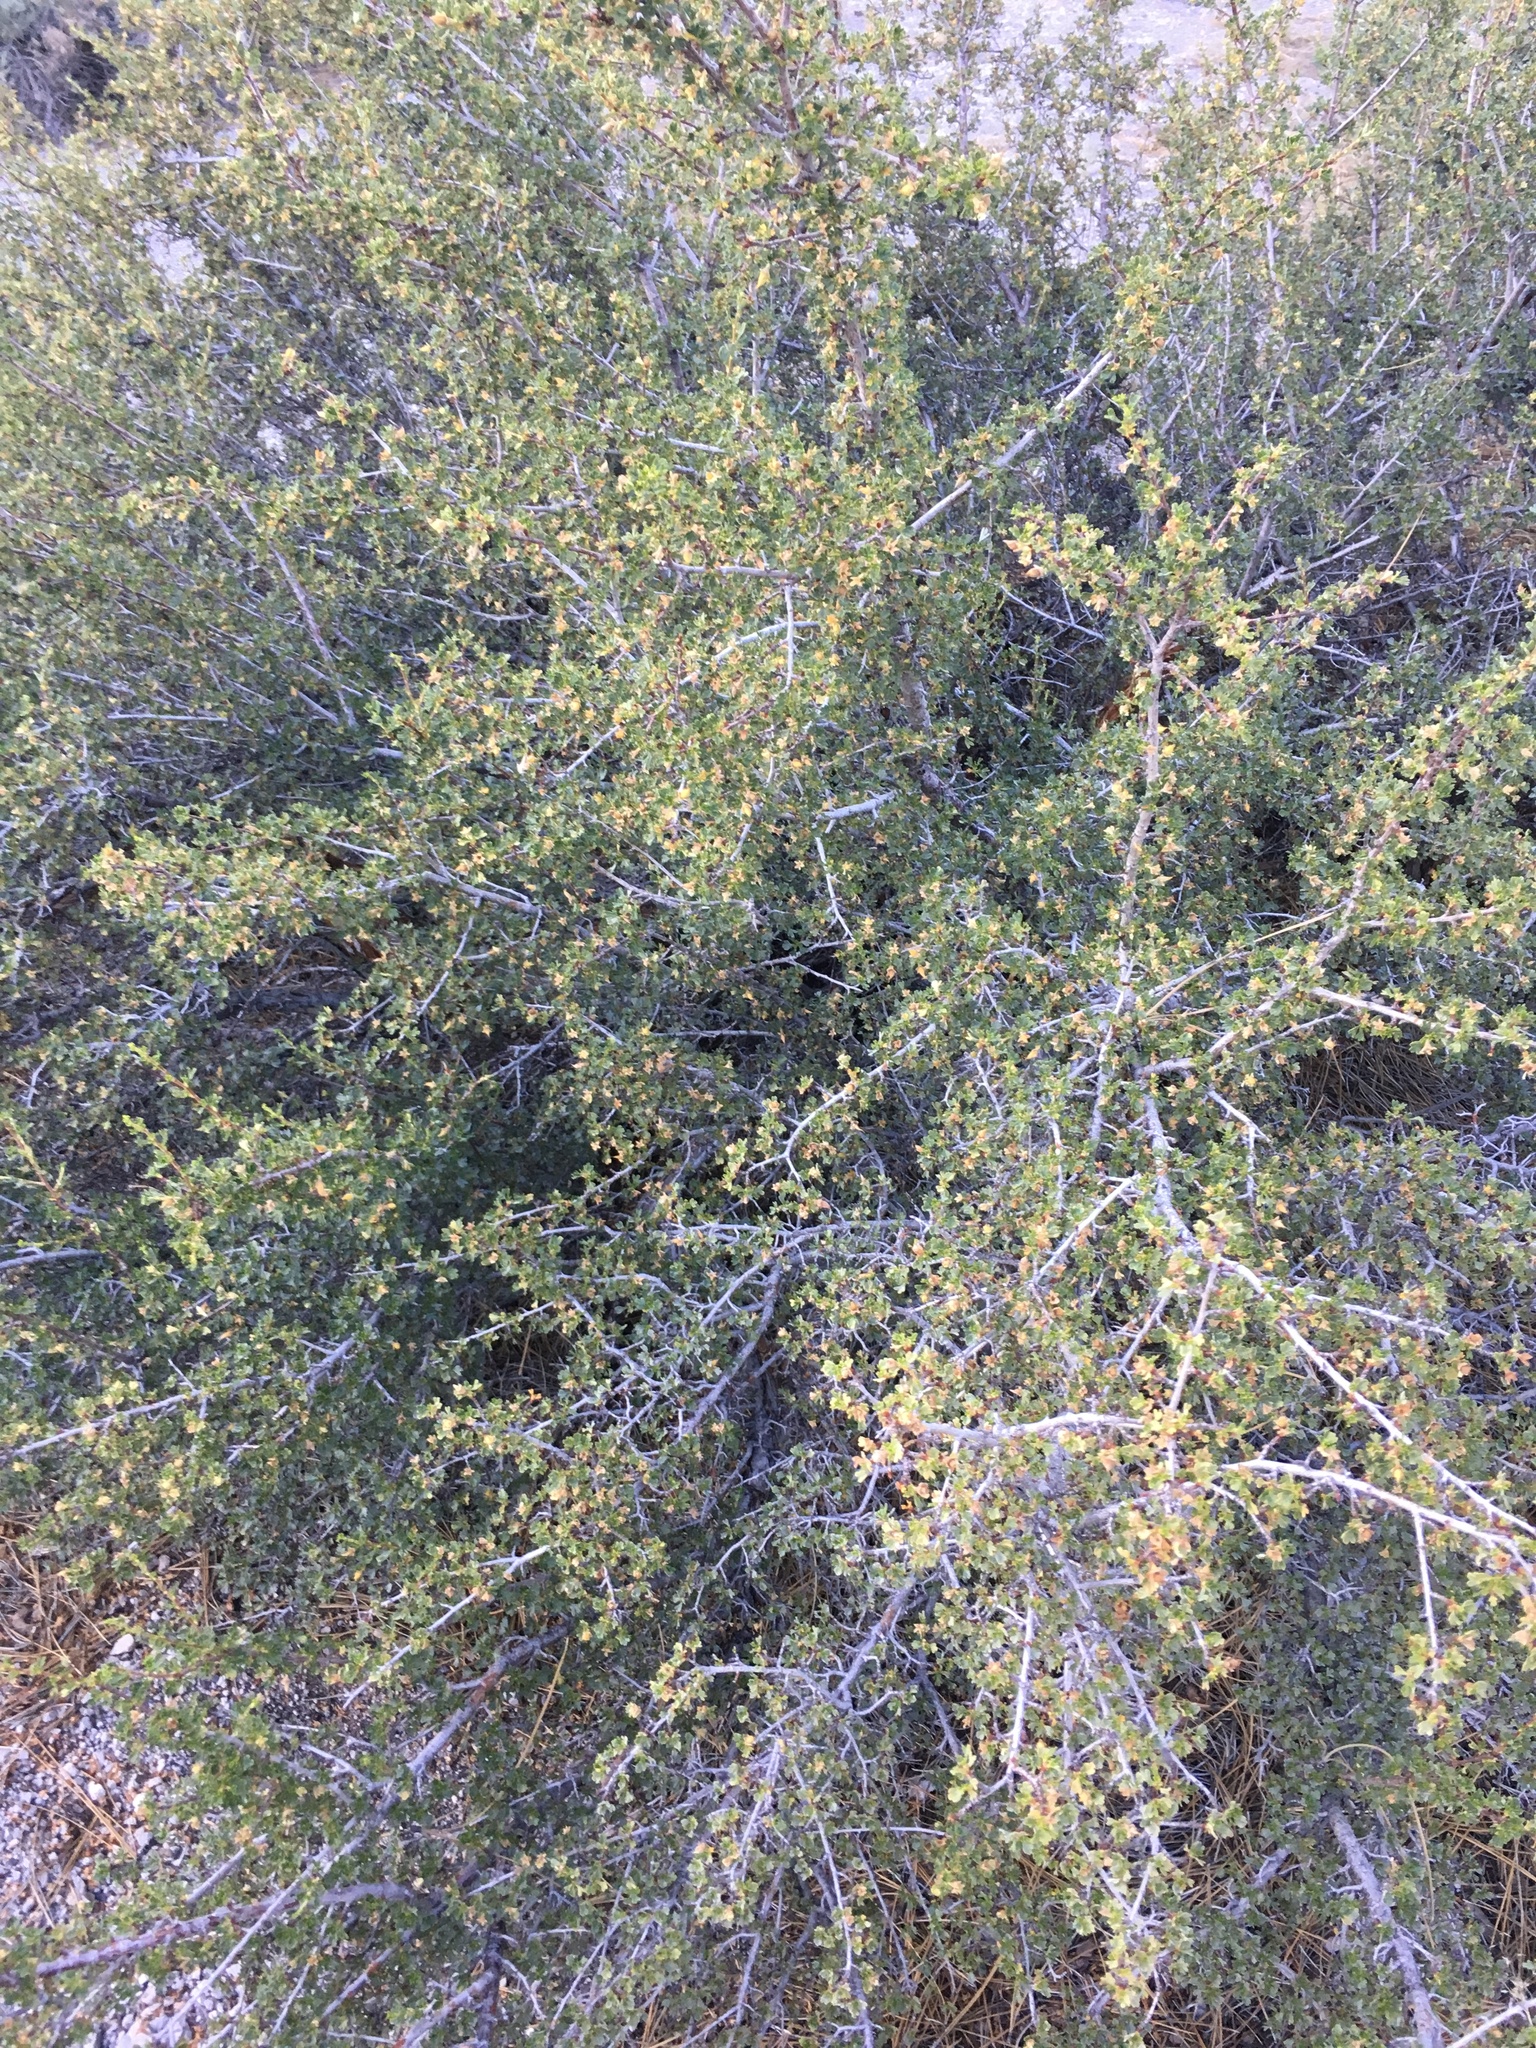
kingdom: Plantae
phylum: Tracheophyta
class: Magnoliopsida
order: Rosales
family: Rosaceae
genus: Purshia
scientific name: Purshia tridentata
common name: Antelope bitterbrush
